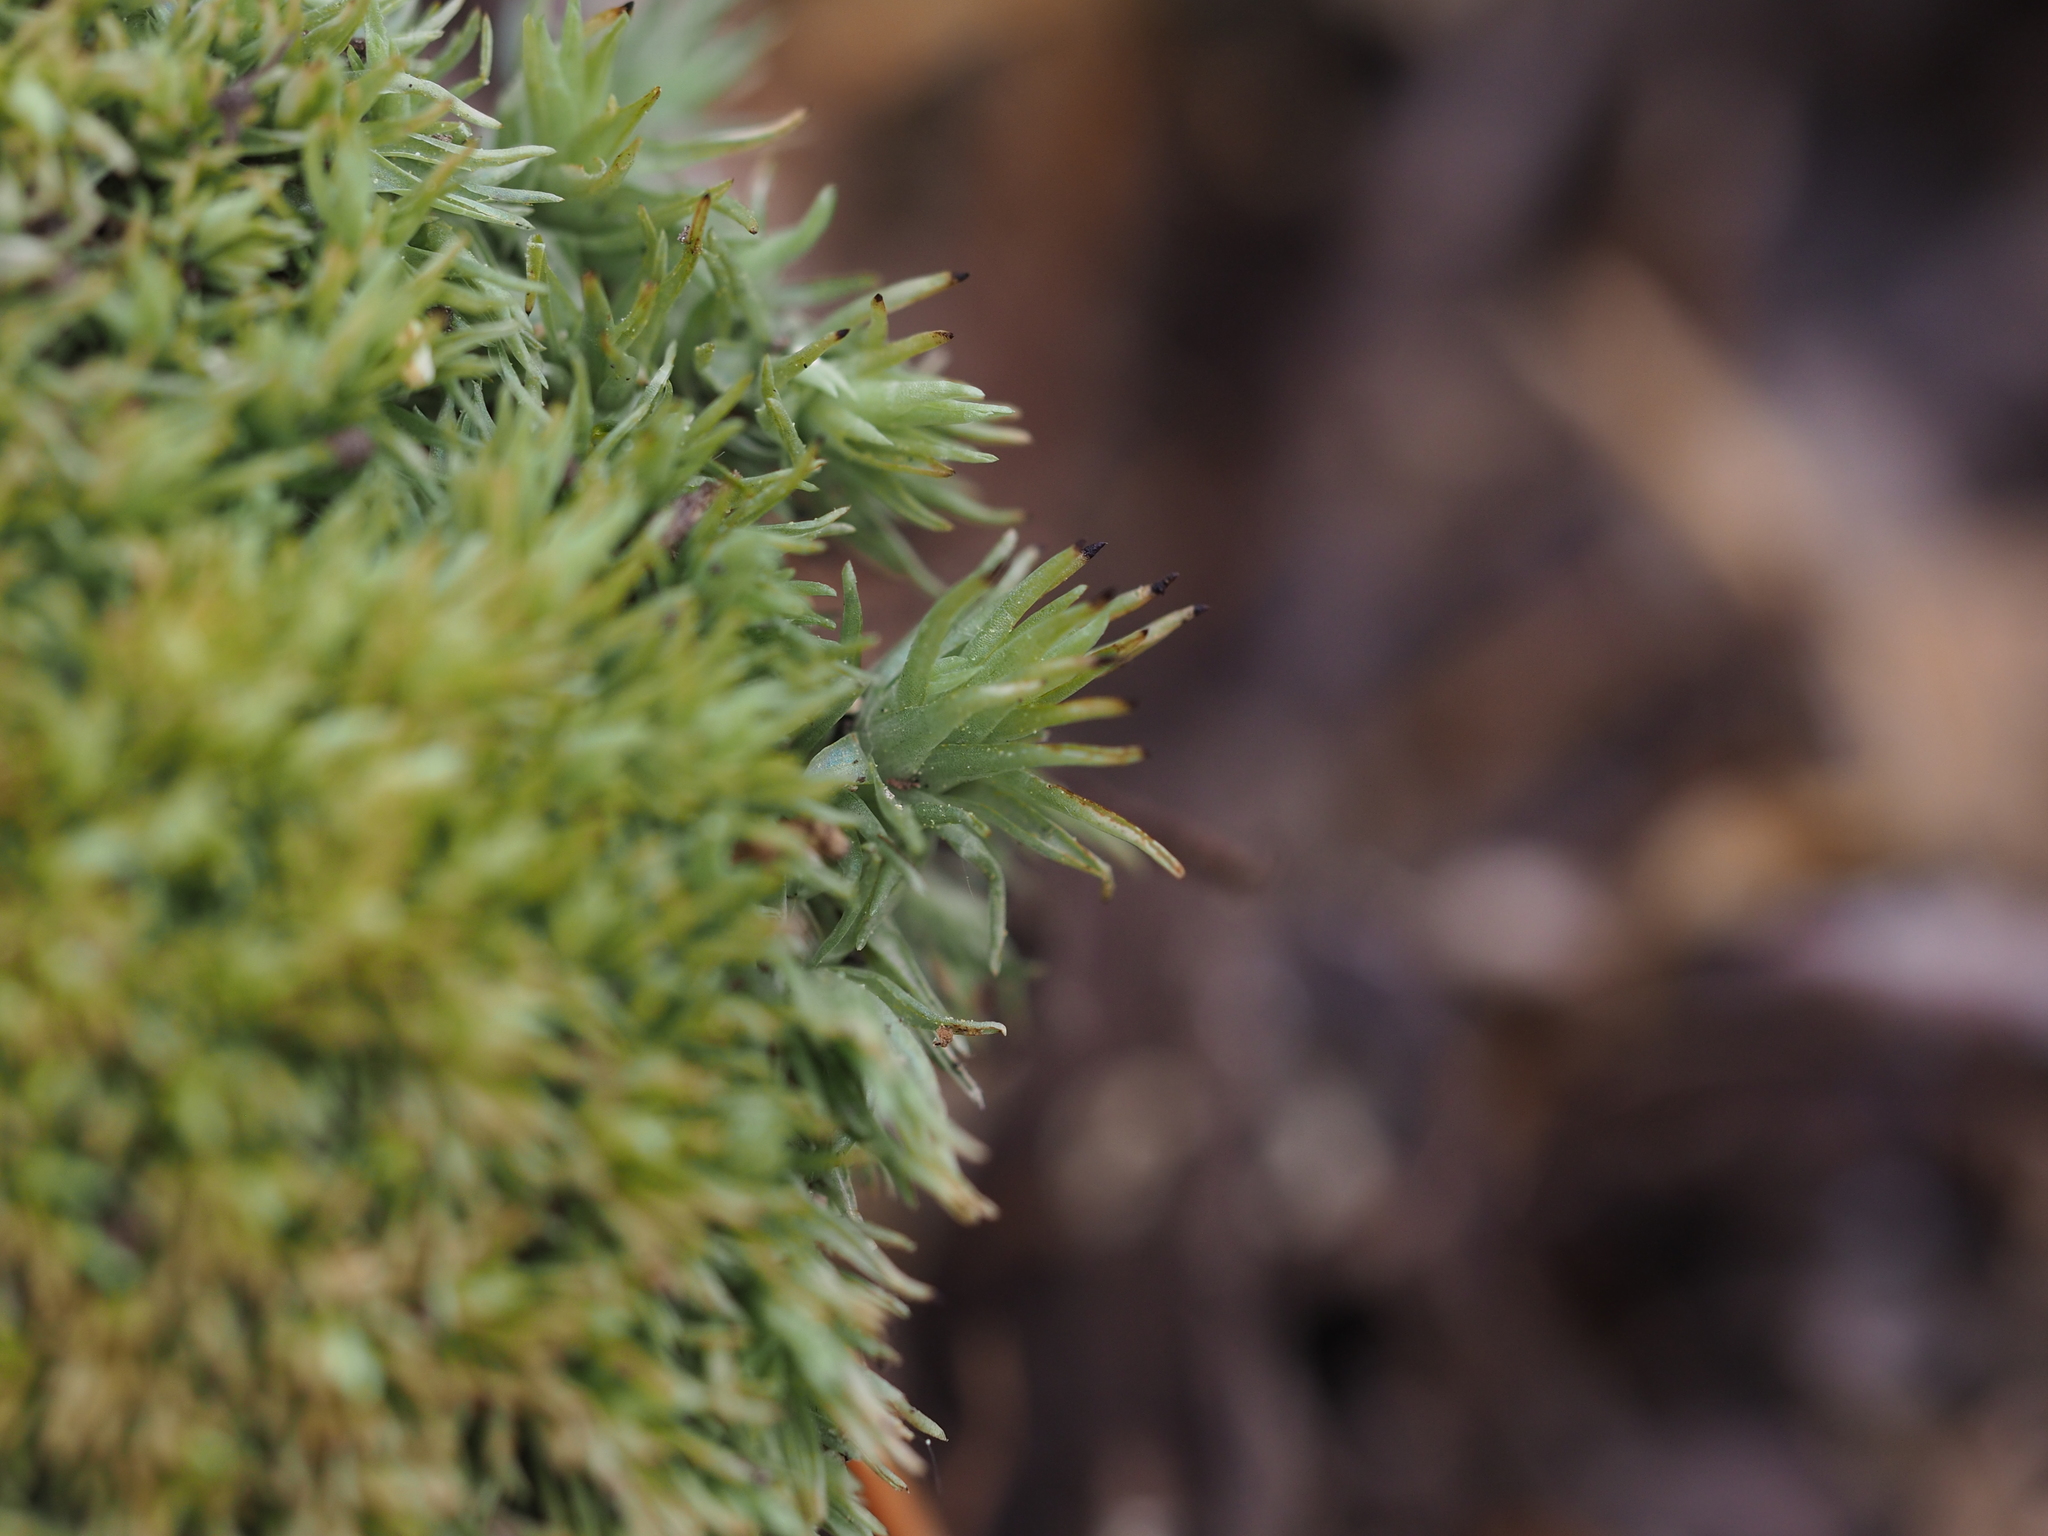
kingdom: Plantae
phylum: Bryophyta
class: Bryopsida
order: Dicranales
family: Leucobryaceae
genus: Leucobryum
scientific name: Leucobryum glaucum
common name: Large white-moss
